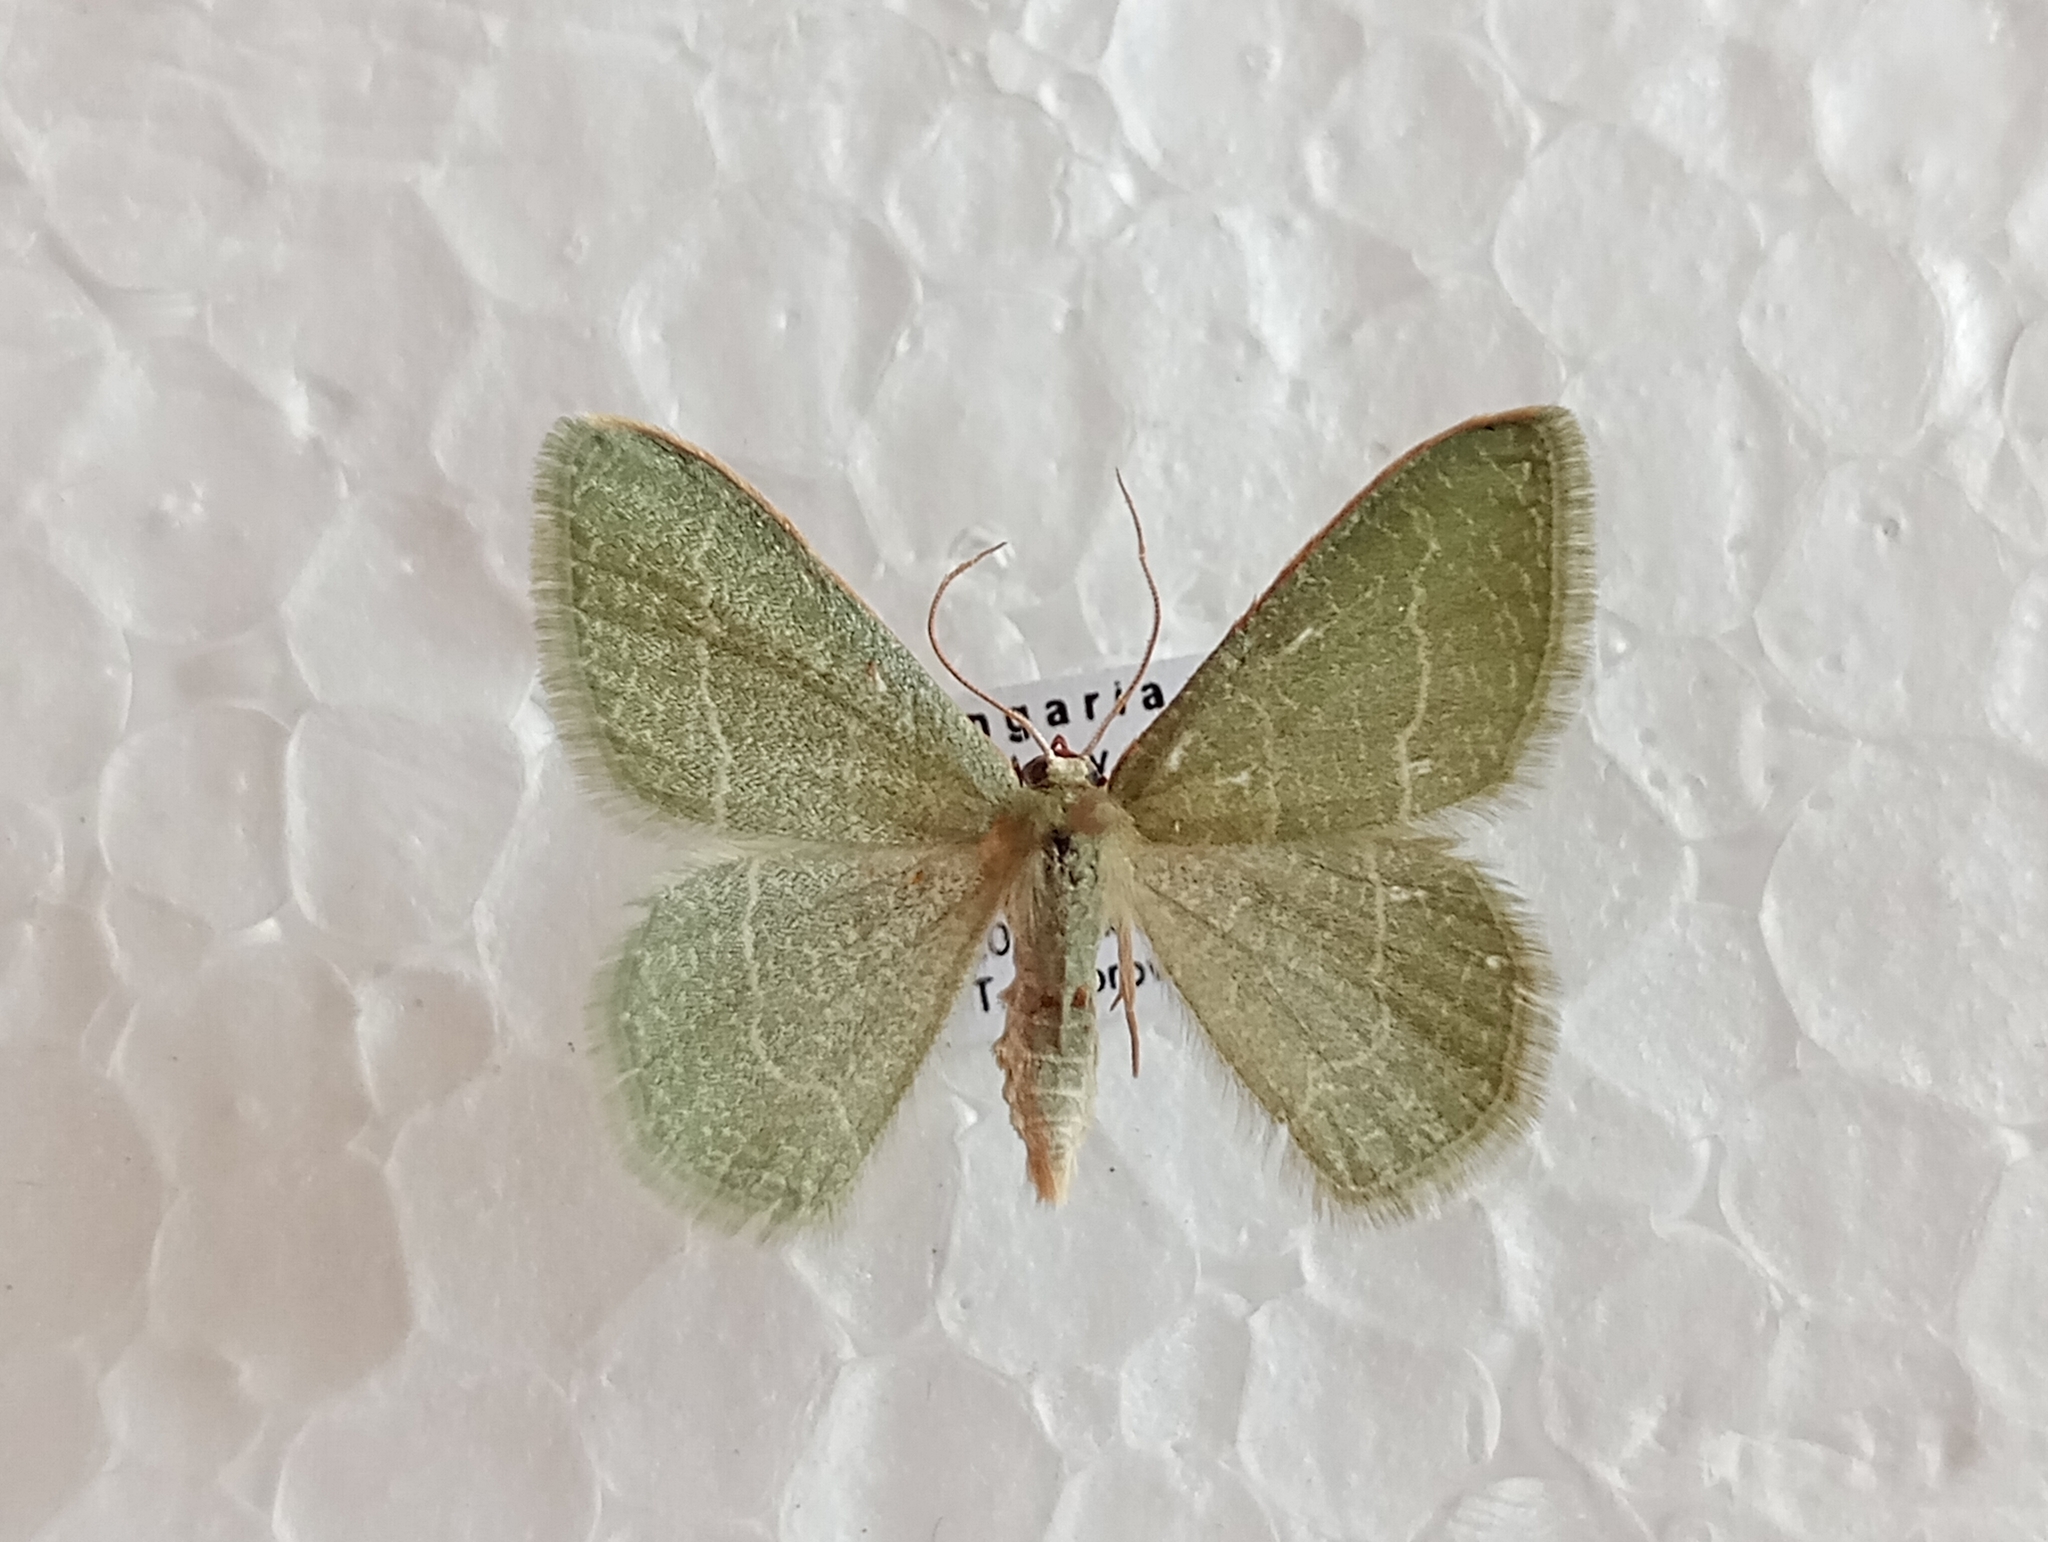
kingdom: Animalia
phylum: Arthropoda
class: Insecta
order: Lepidoptera
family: Geometridae
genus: Chlorissa
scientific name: Chlorissa etruscaria
